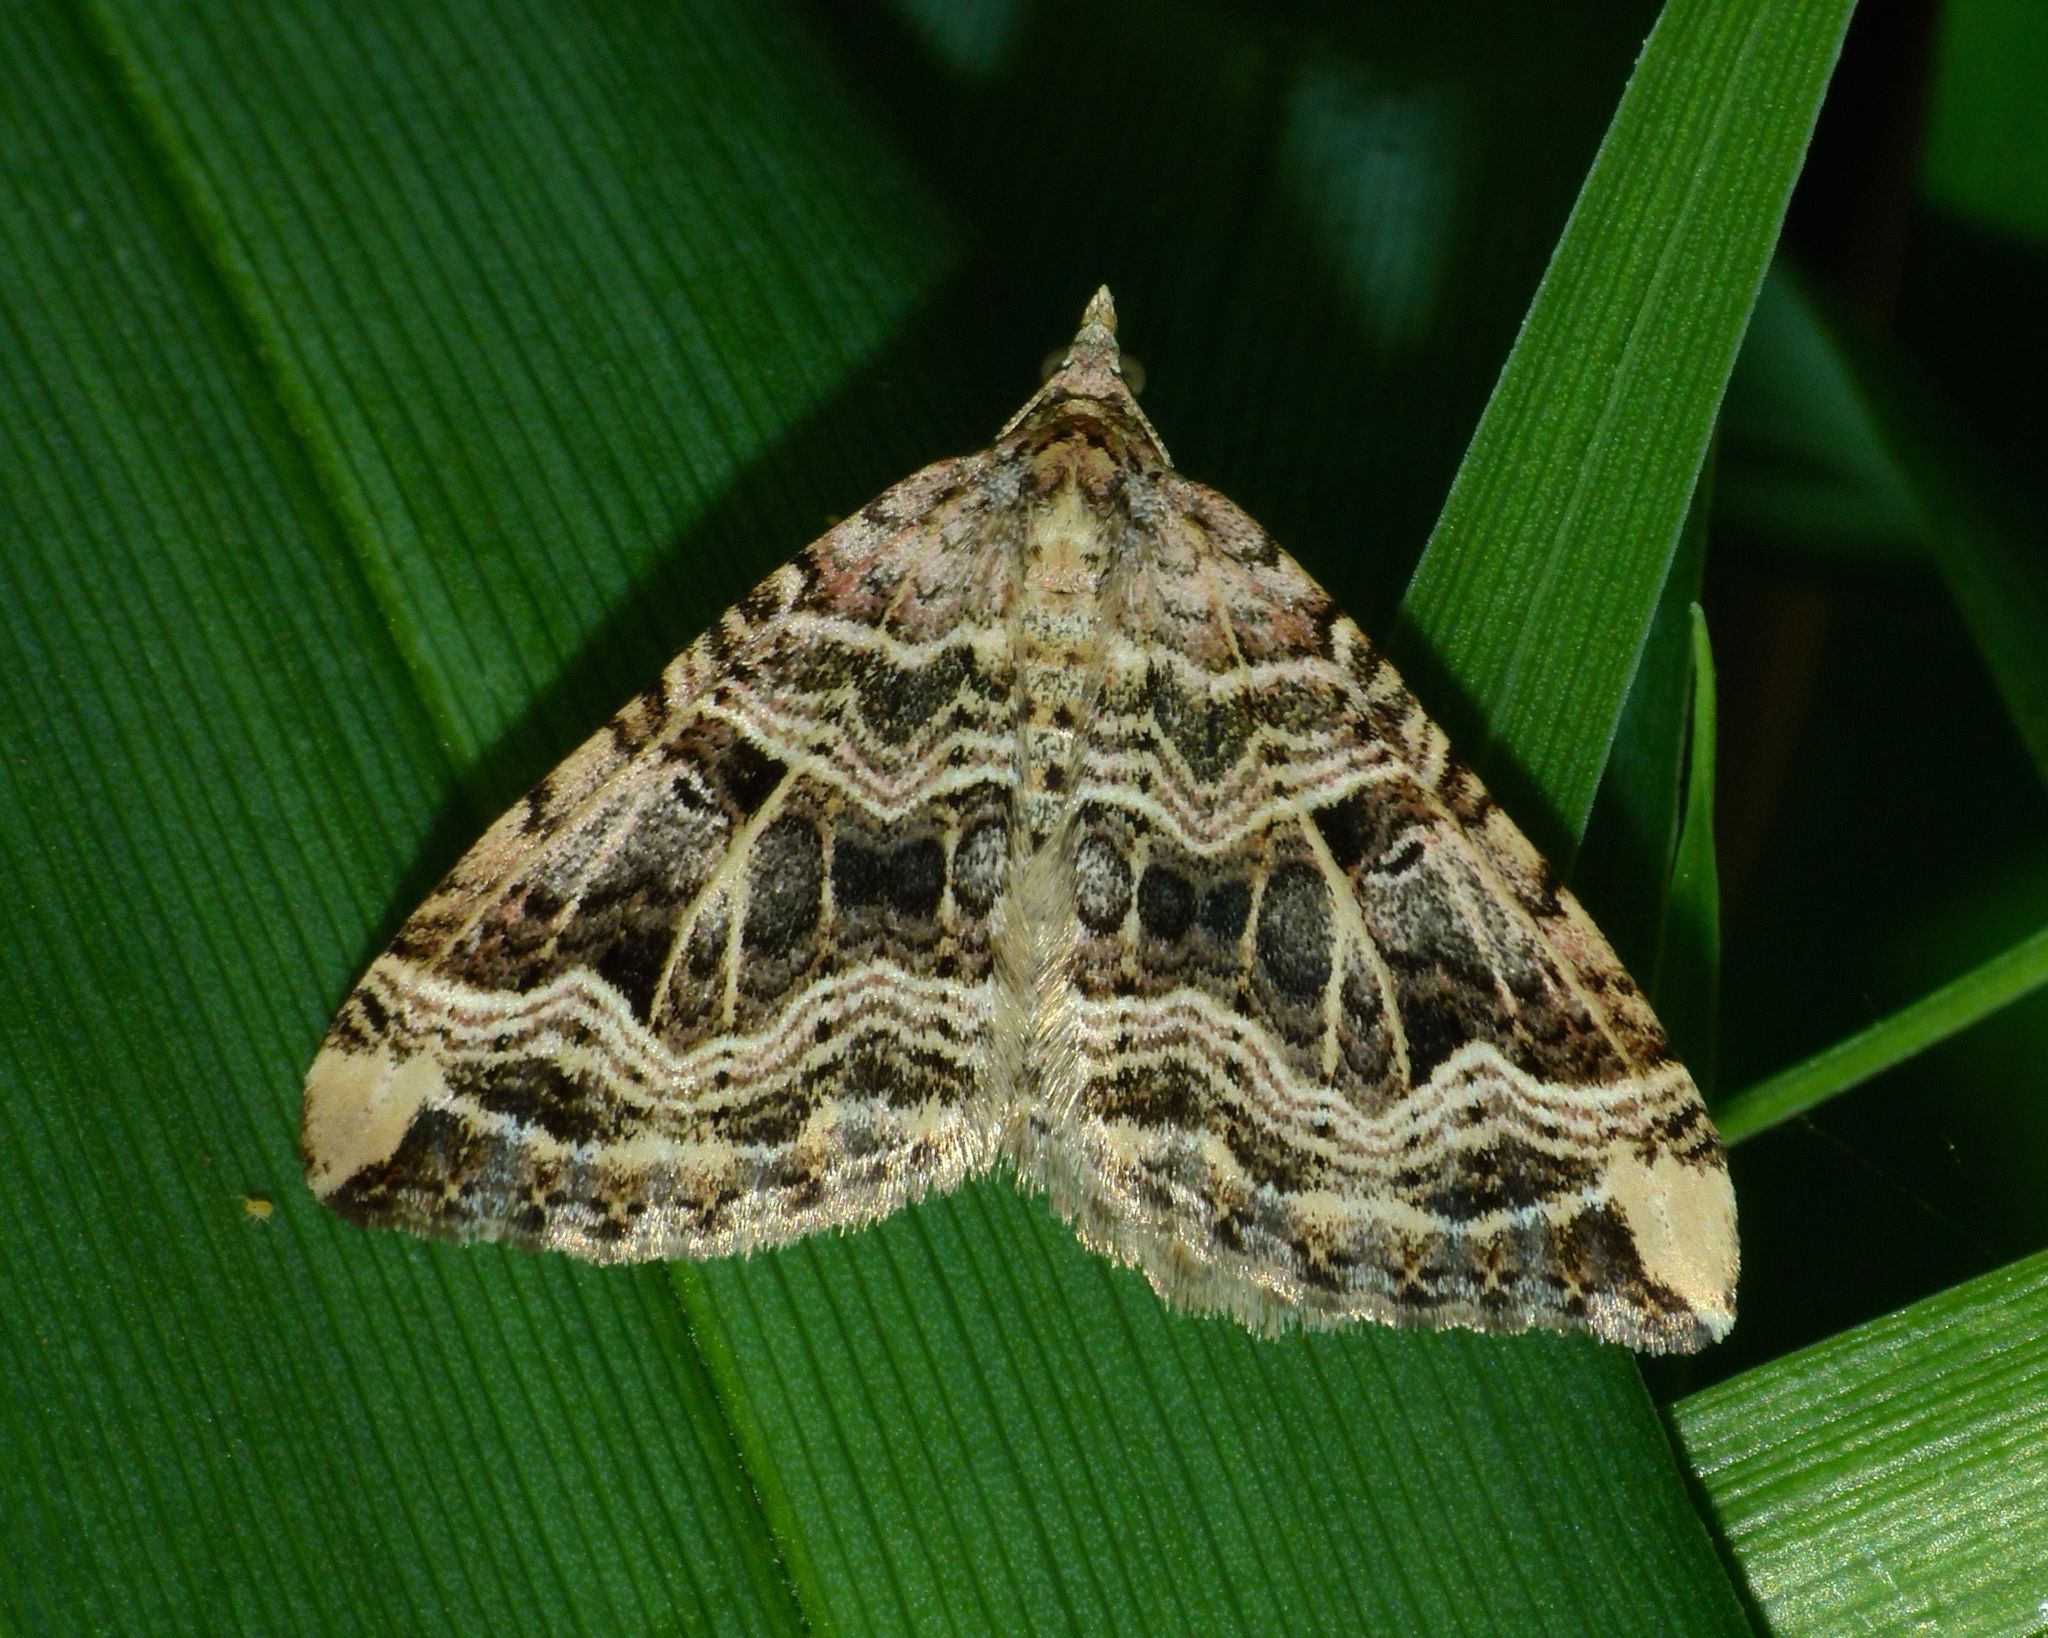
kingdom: Animalia
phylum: Arthropoda
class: Insecta
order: Lepidoptera
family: Geometridae
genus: Xanthorhoe
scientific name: Xanthorhoe semifissata
